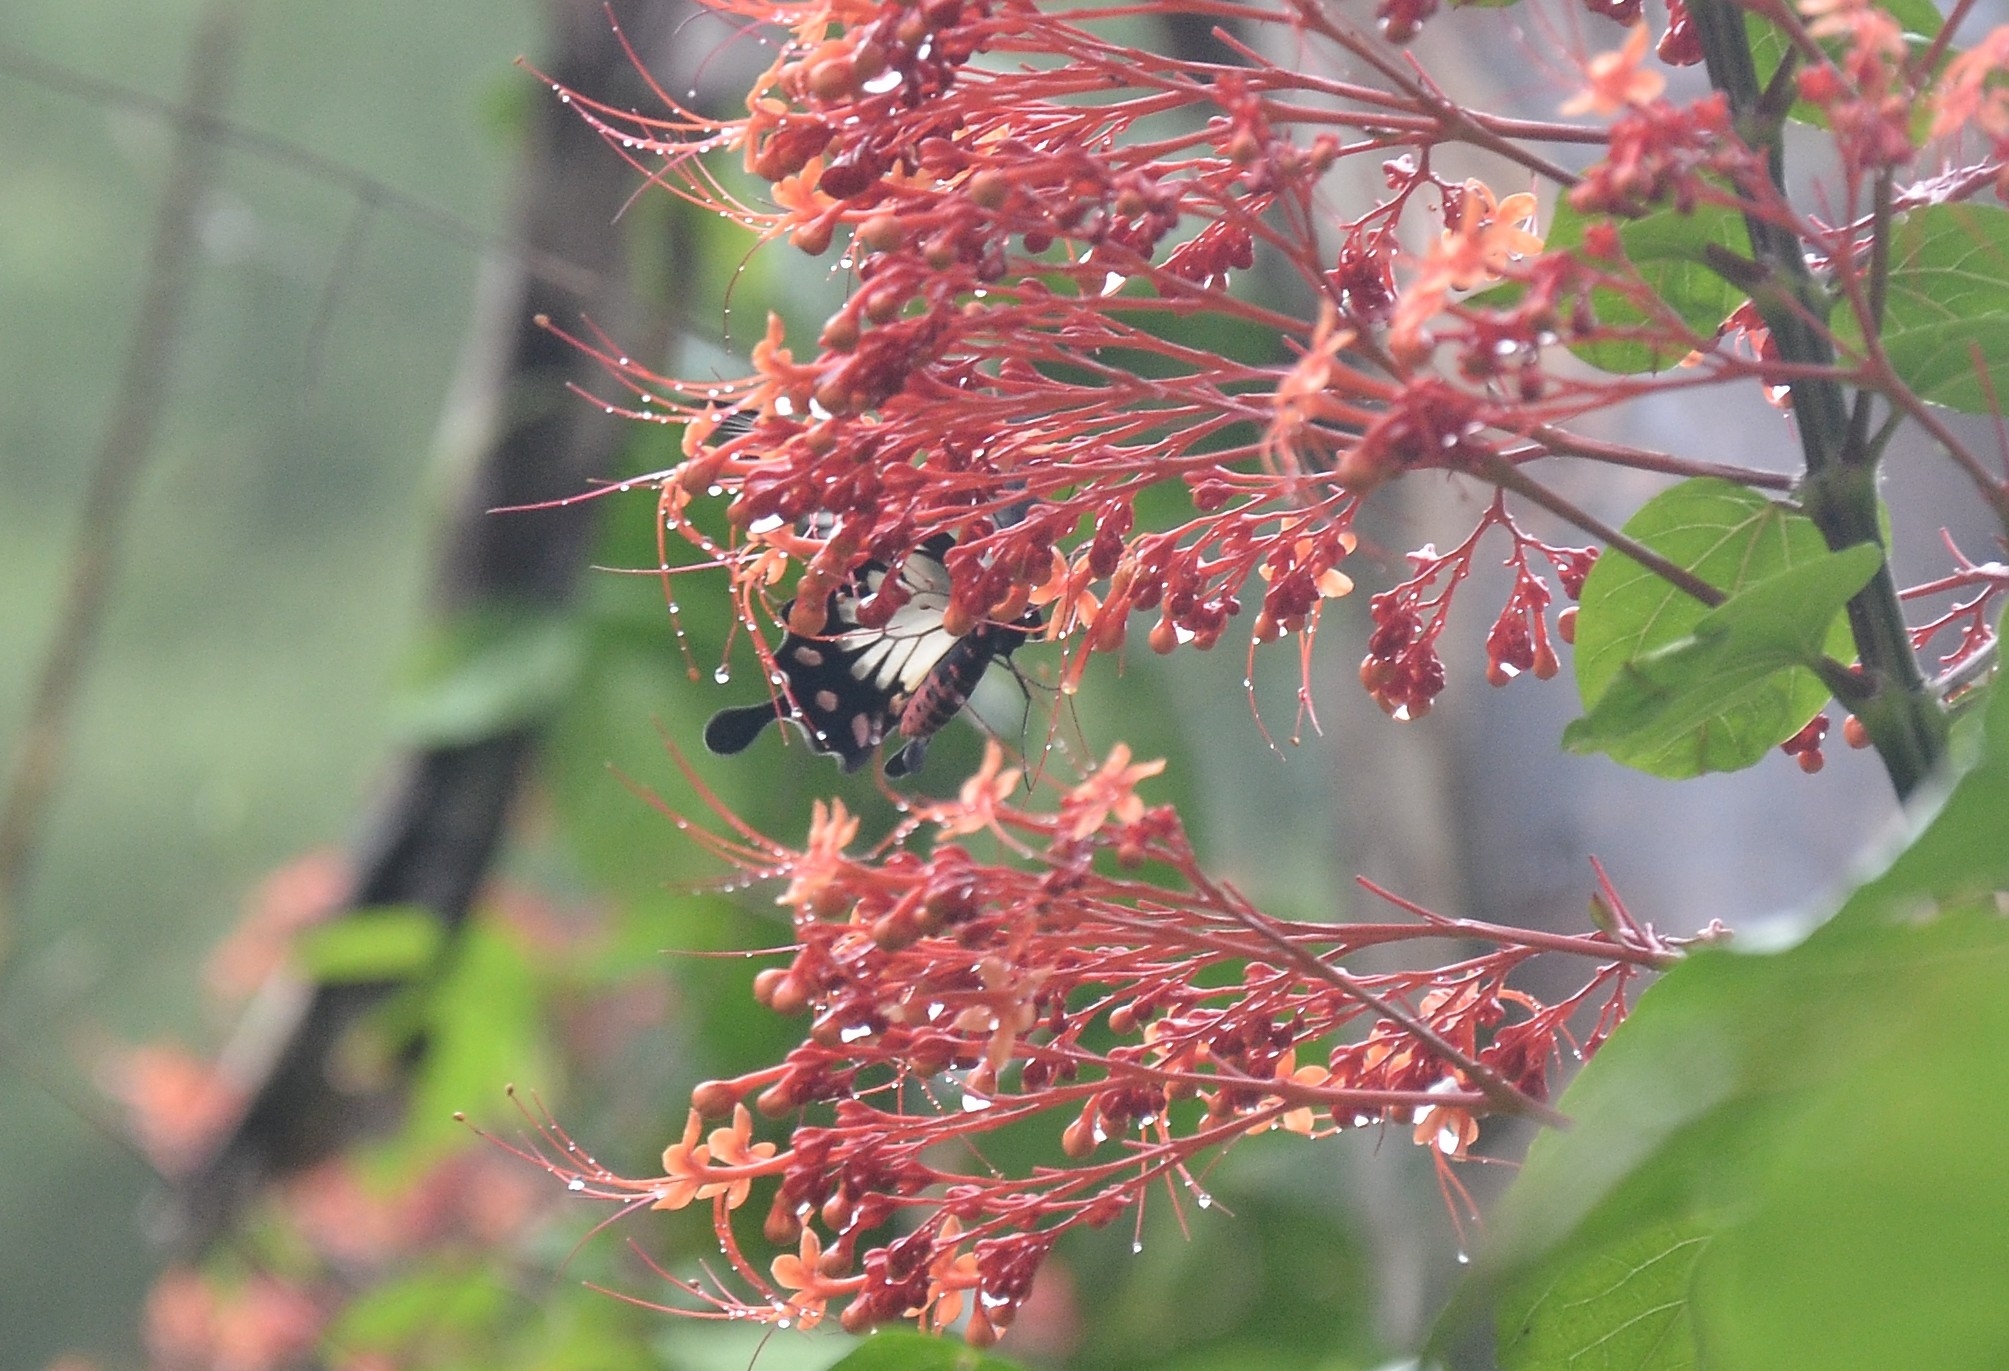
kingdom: Animalia
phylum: Arthropoda
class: Insecta
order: Lepidoptera
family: Papilionidae
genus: Pachliopta
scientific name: Pachliopta pandiyana
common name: Malabar rose
